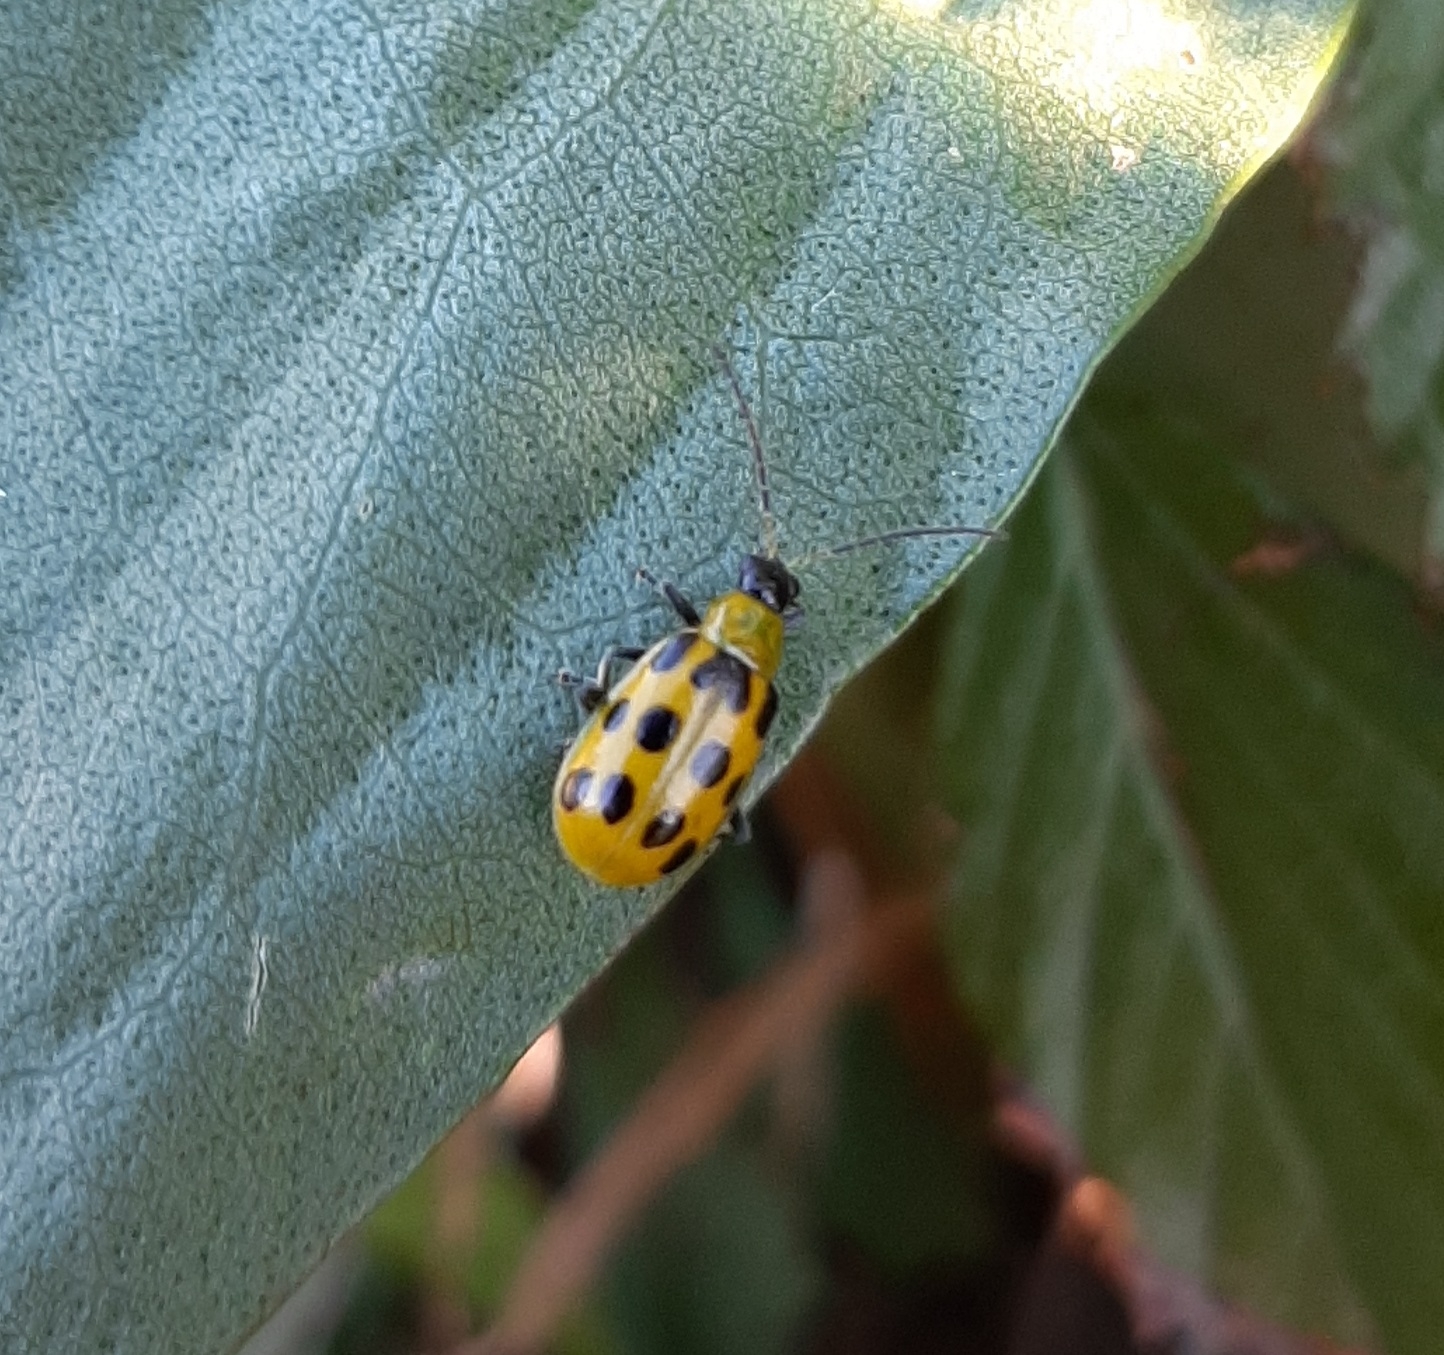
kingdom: Animalia
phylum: Arthropoda
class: Insecta
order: Coleoptera
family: Chrysomelidae
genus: Diabrotica
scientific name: Diabrotica undecimpunctata
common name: Spotted cucumber beetle
